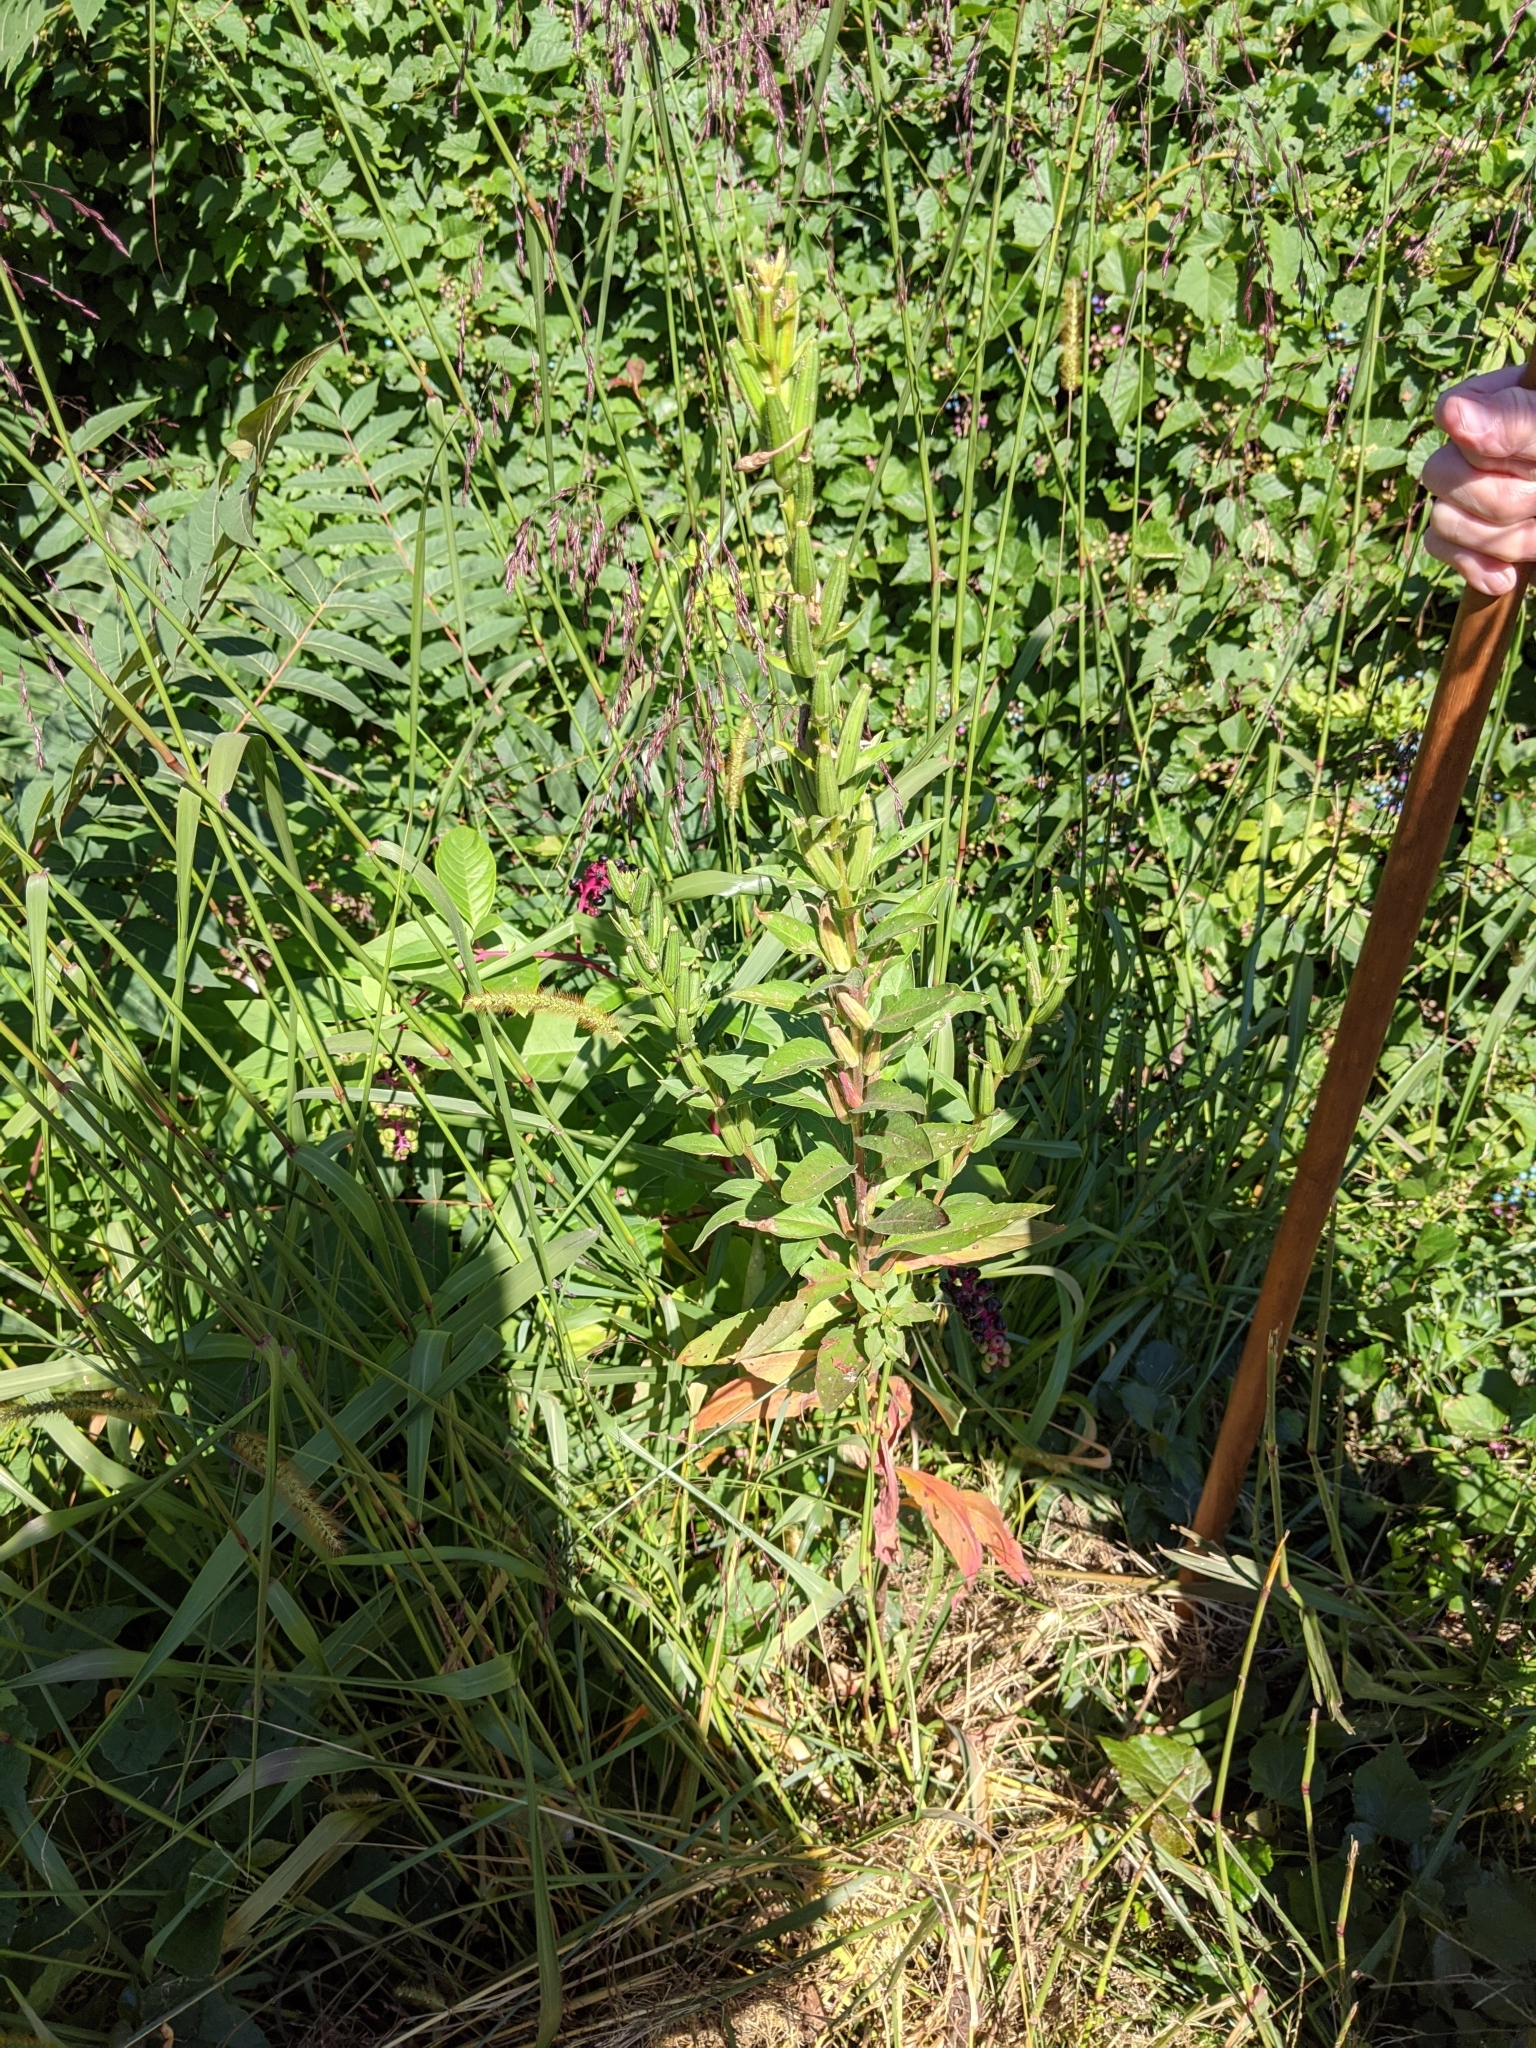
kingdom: Plantae
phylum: Tracheophyta
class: Magnoliopsida
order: Myrtales
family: Onagraceae
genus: Oenothera
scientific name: Oenothera biennis
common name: Common evening-primrose
